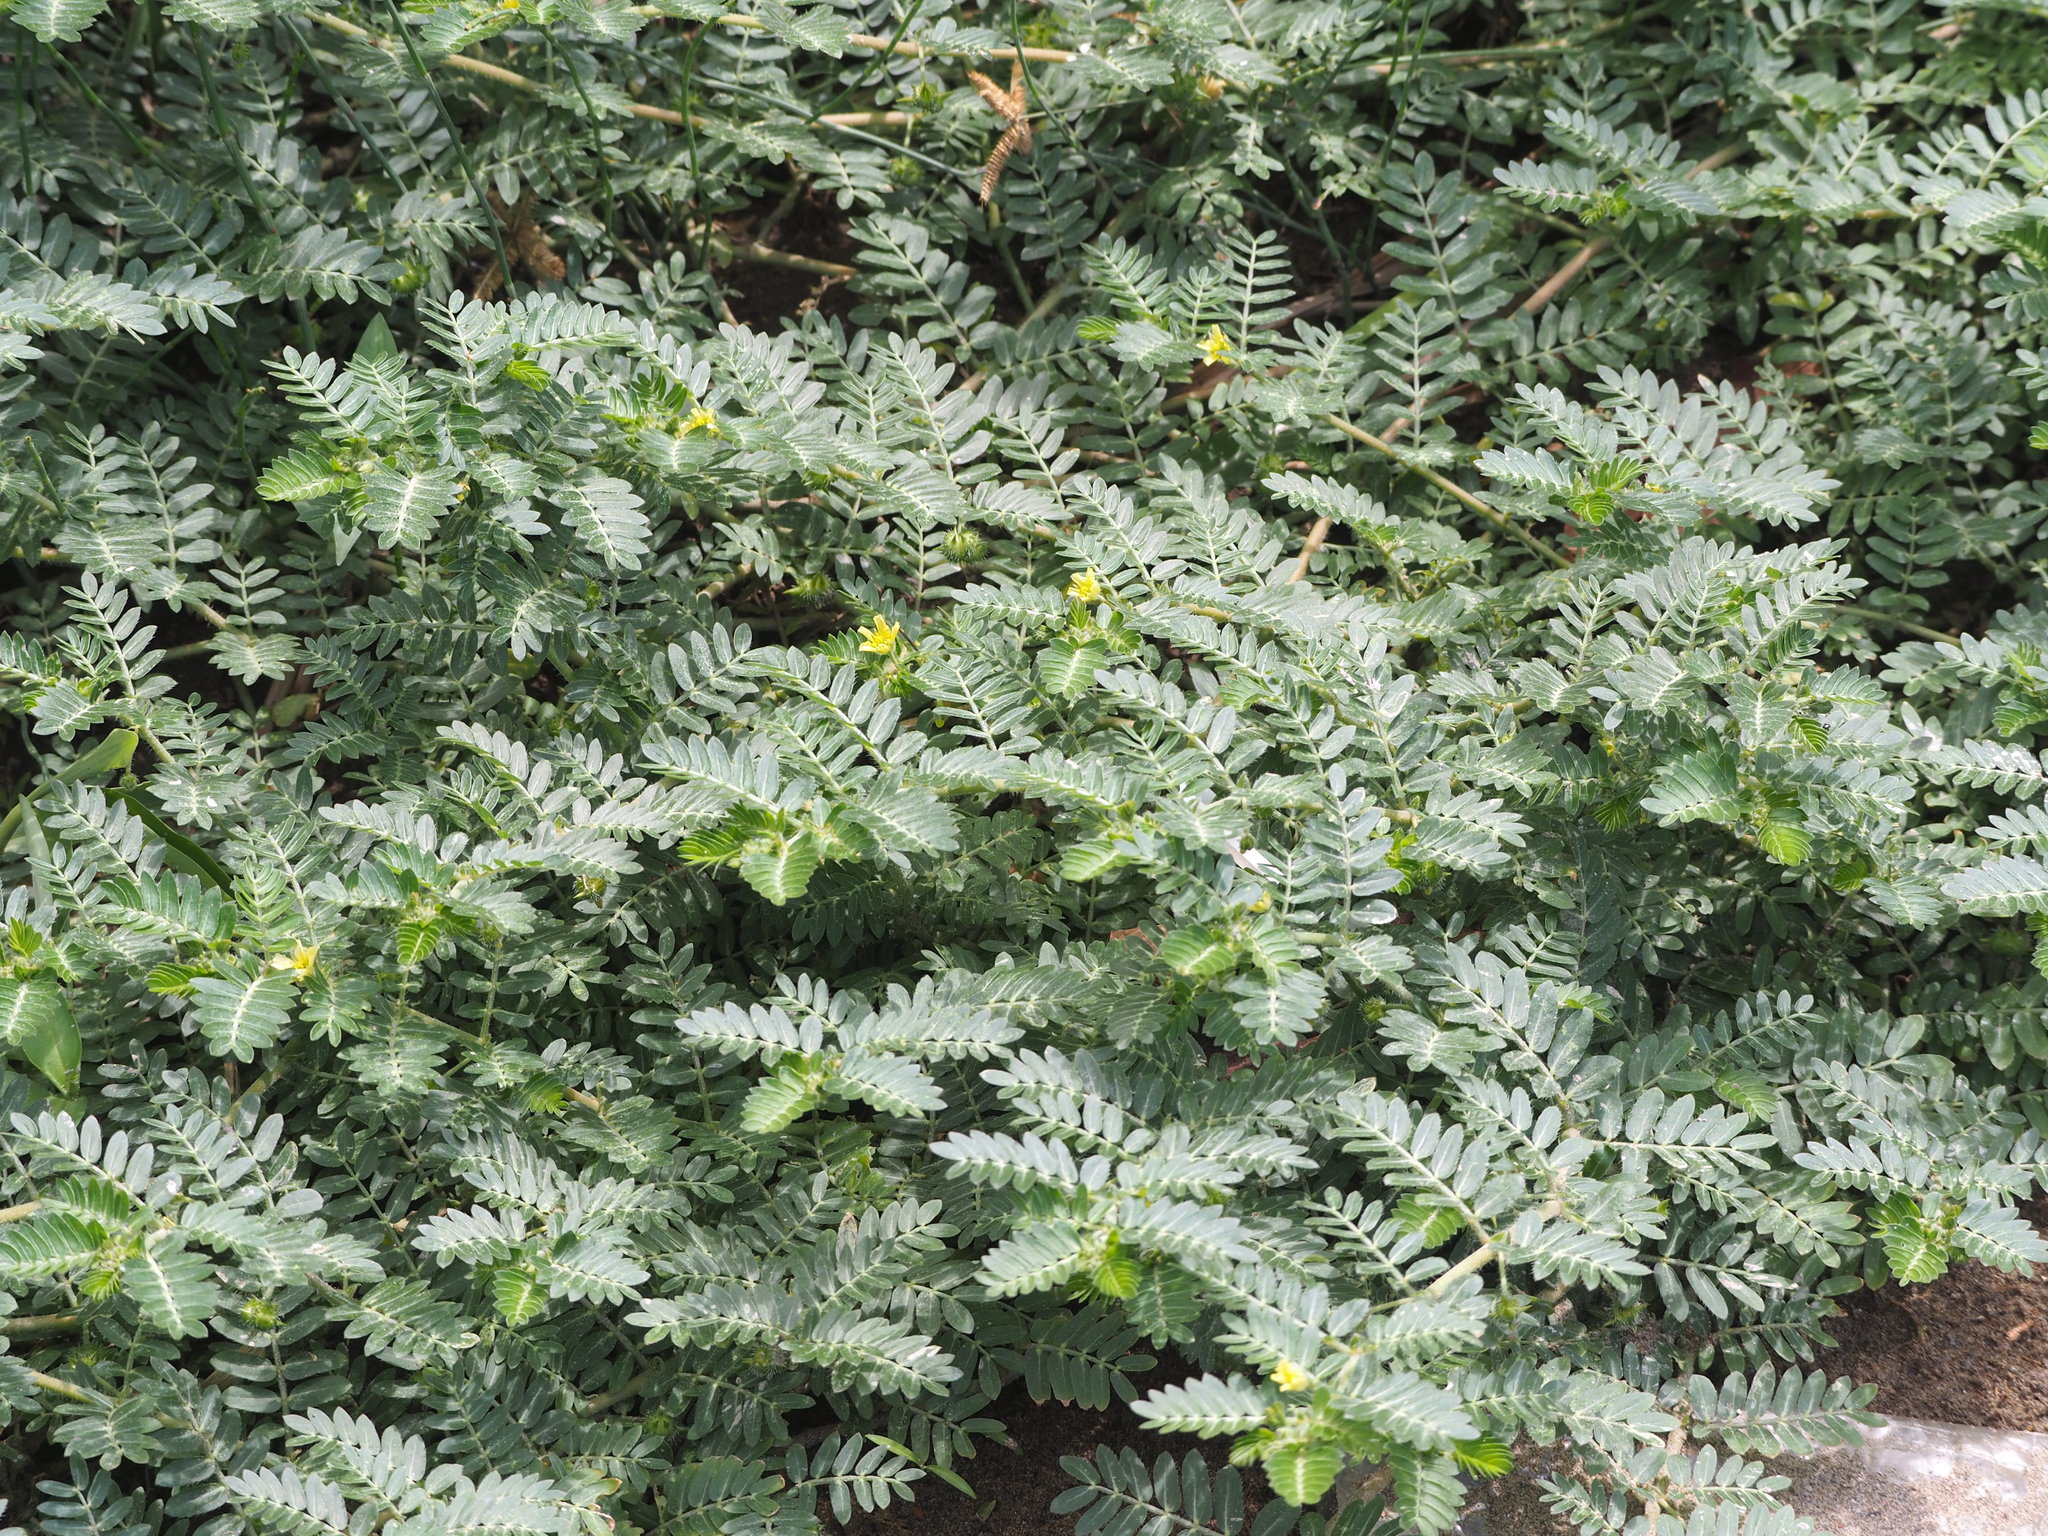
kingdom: Plantae
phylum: Tracheophyta
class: Magnoliopsida
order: Zygophyllales
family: Zygophyllaceae
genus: Tribulus
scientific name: Tribulus terrestris
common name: Puncturevine
